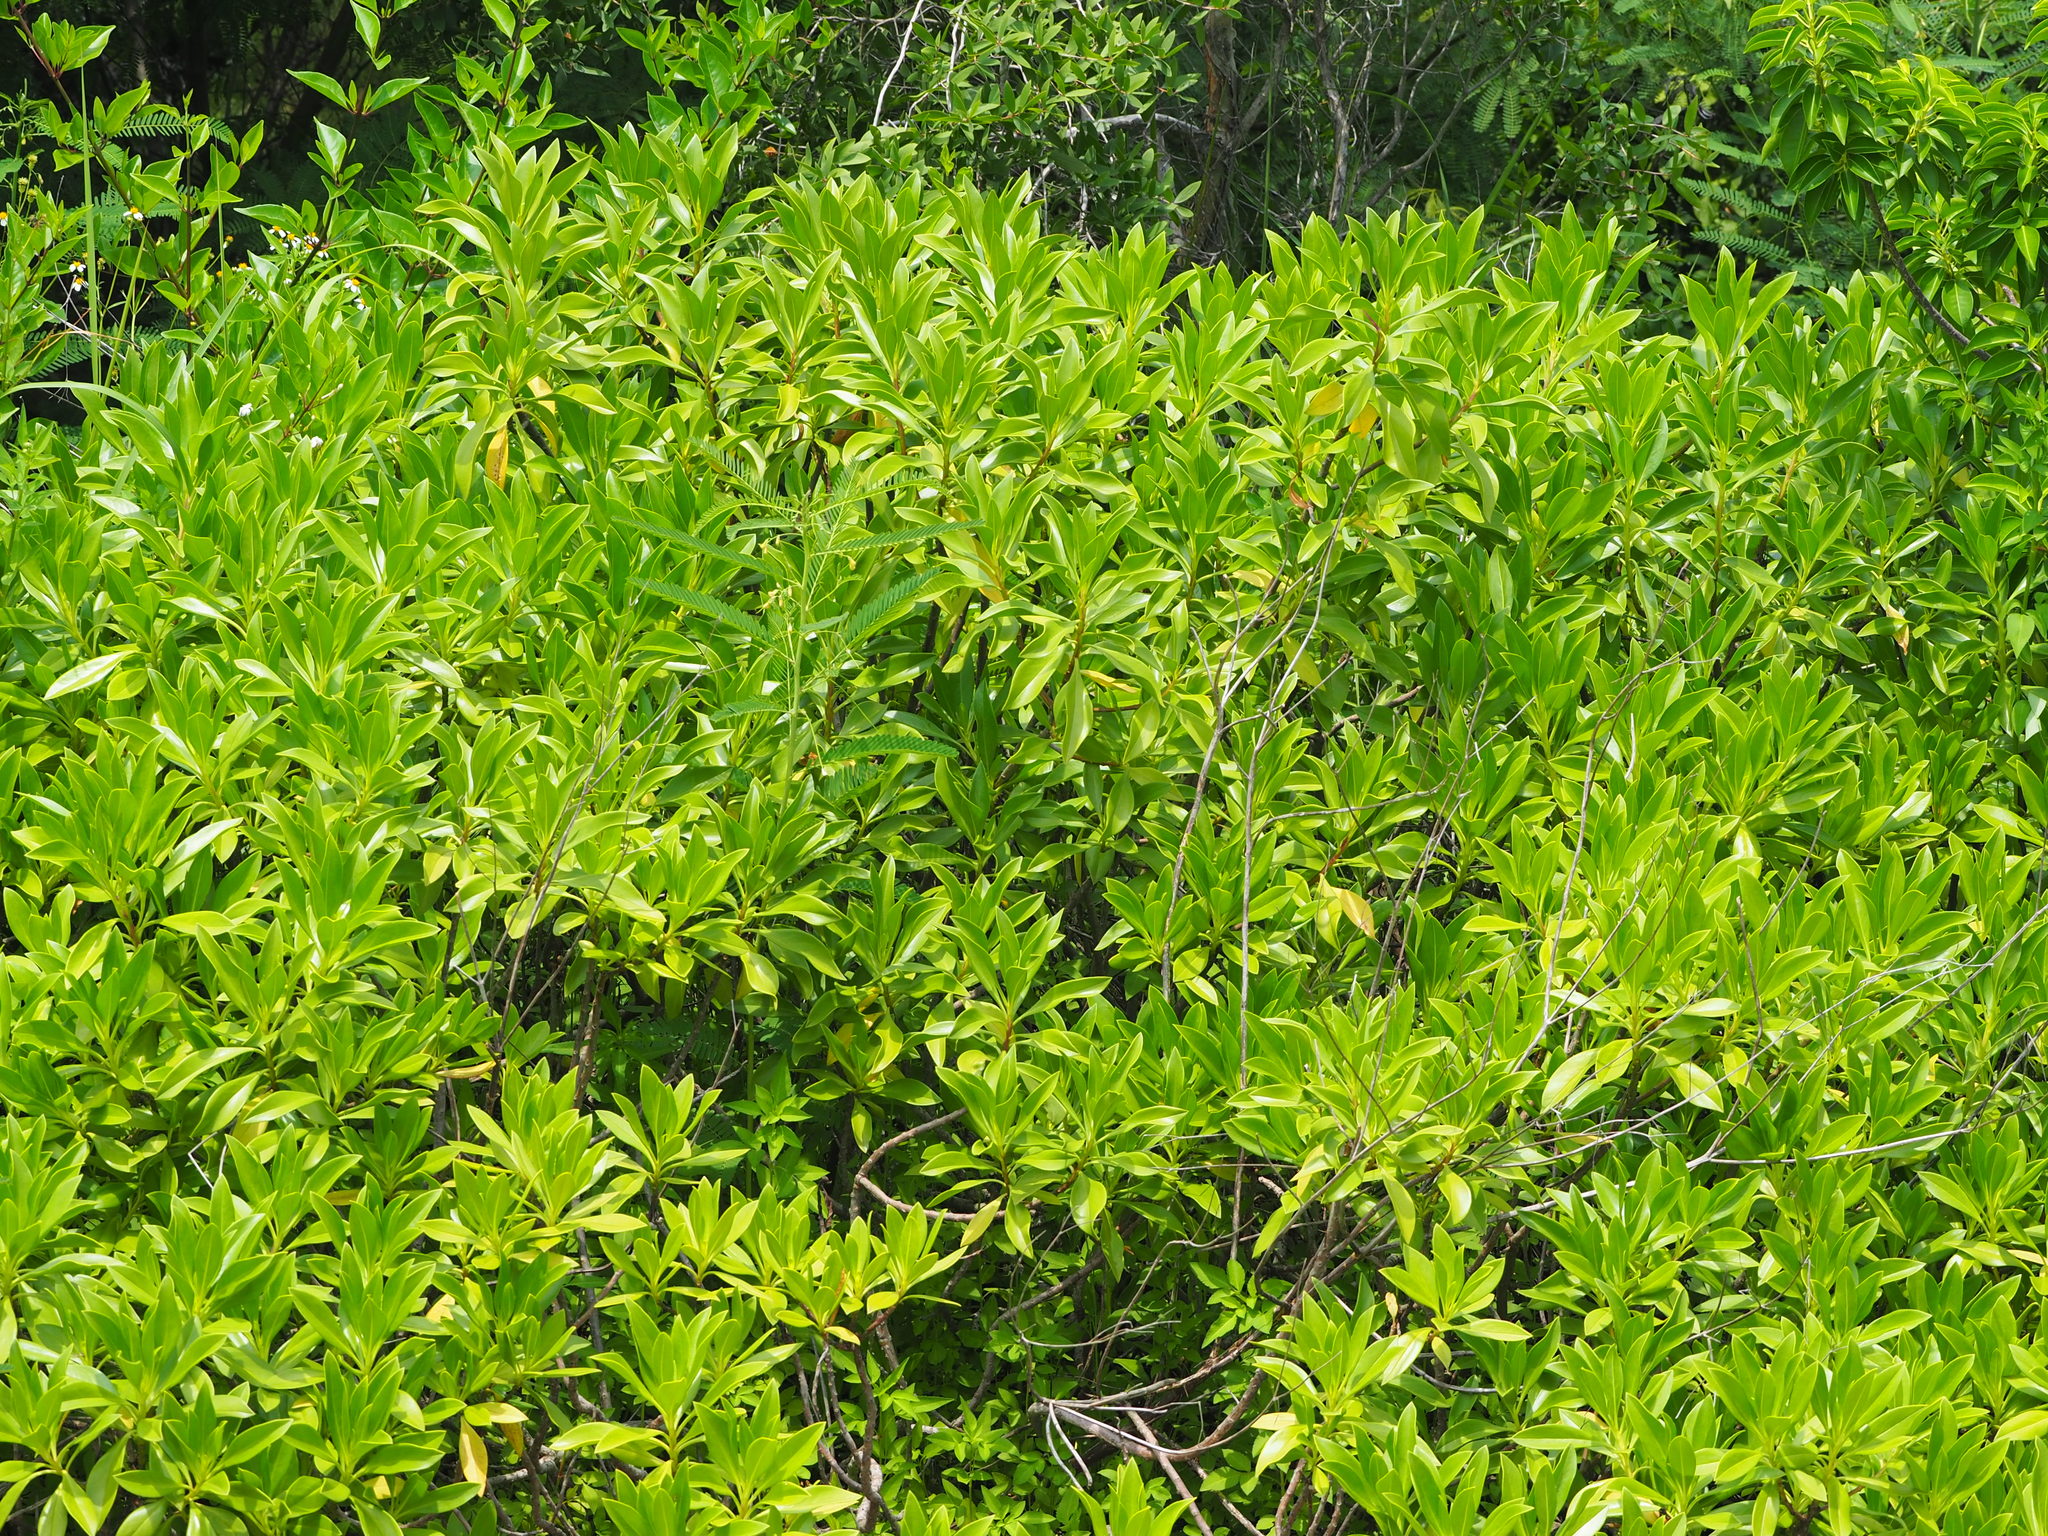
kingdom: Plantae
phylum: Tracheophyta
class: Magnoliopsida
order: Lamiales
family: Scrophulariaceae
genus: Myoporum
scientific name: Myoporum bontioides
